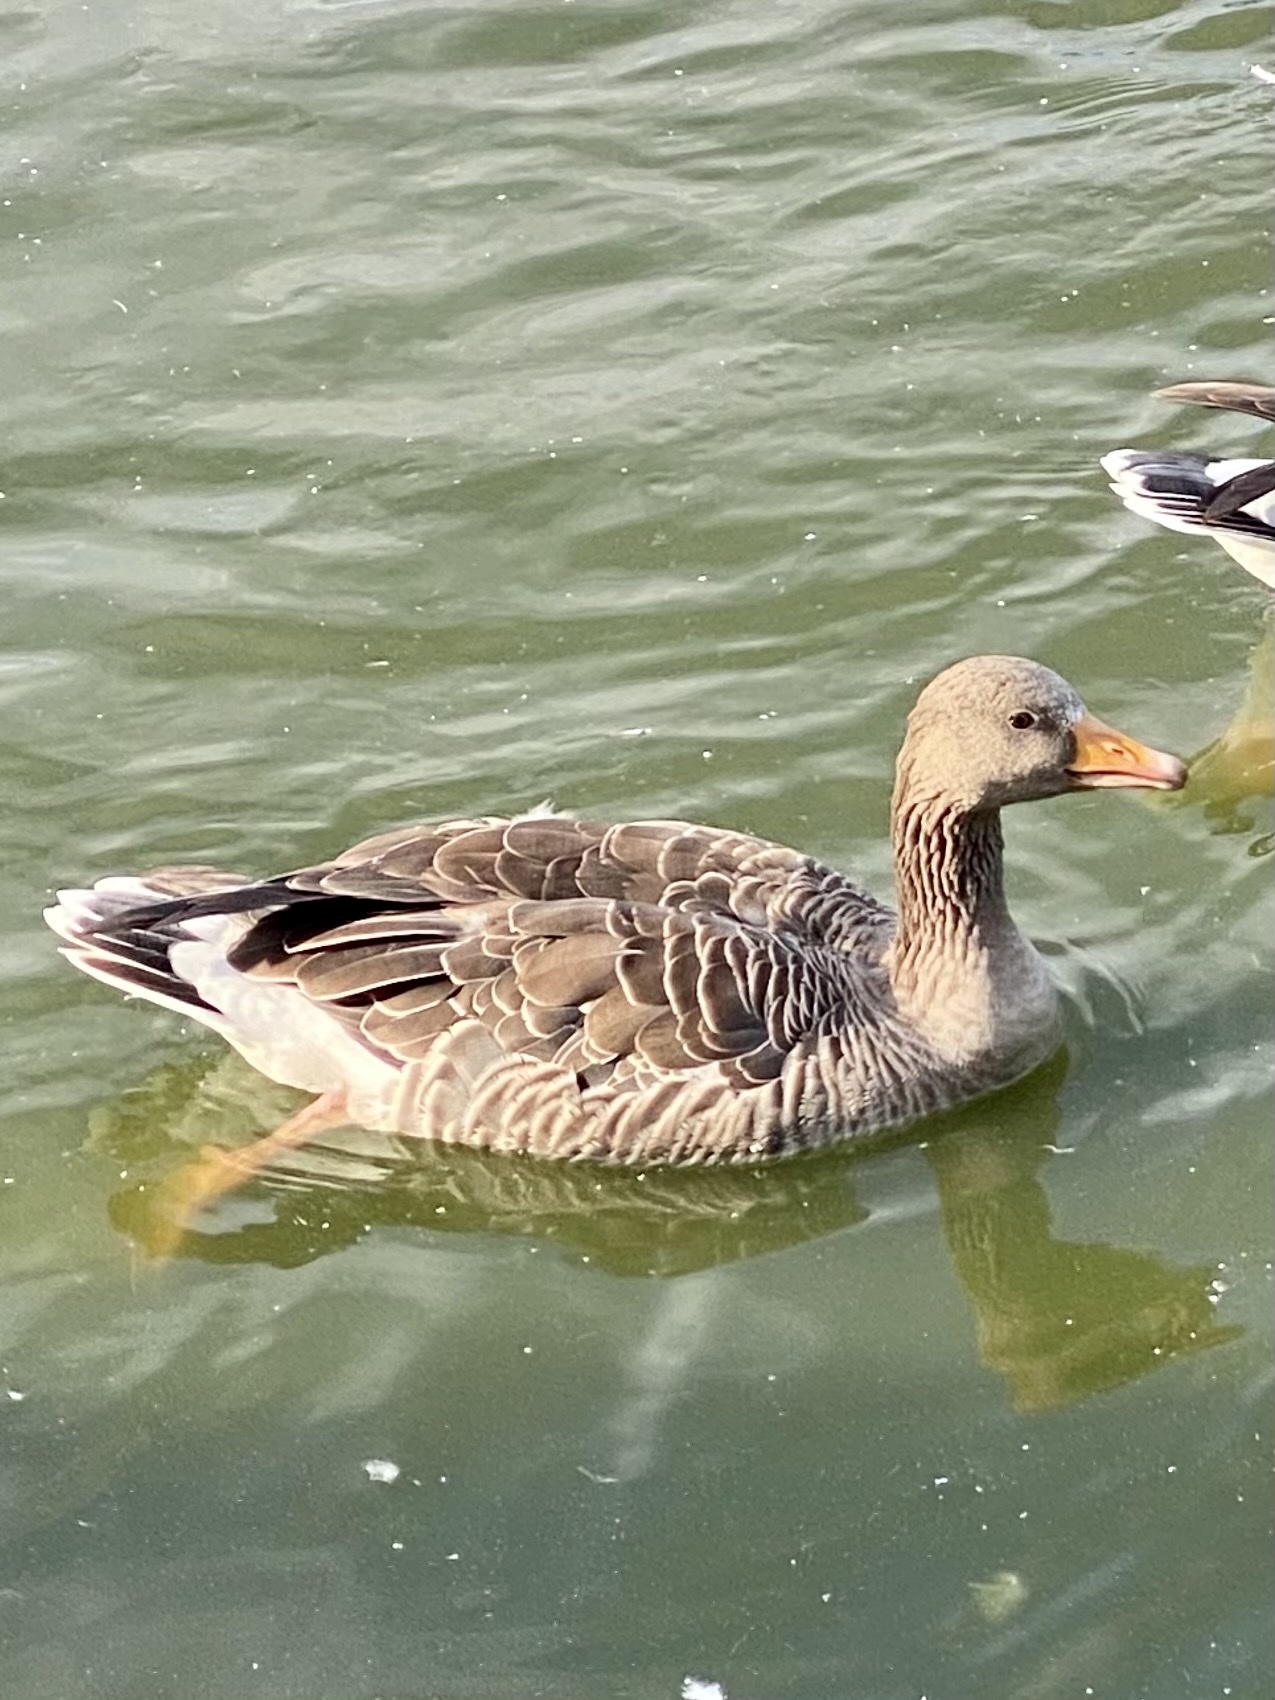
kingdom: Animalia
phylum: Chordata
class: Aves
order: Anseriformes
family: Anatidae
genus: Anser
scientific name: Anser anser
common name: Greylag goose
